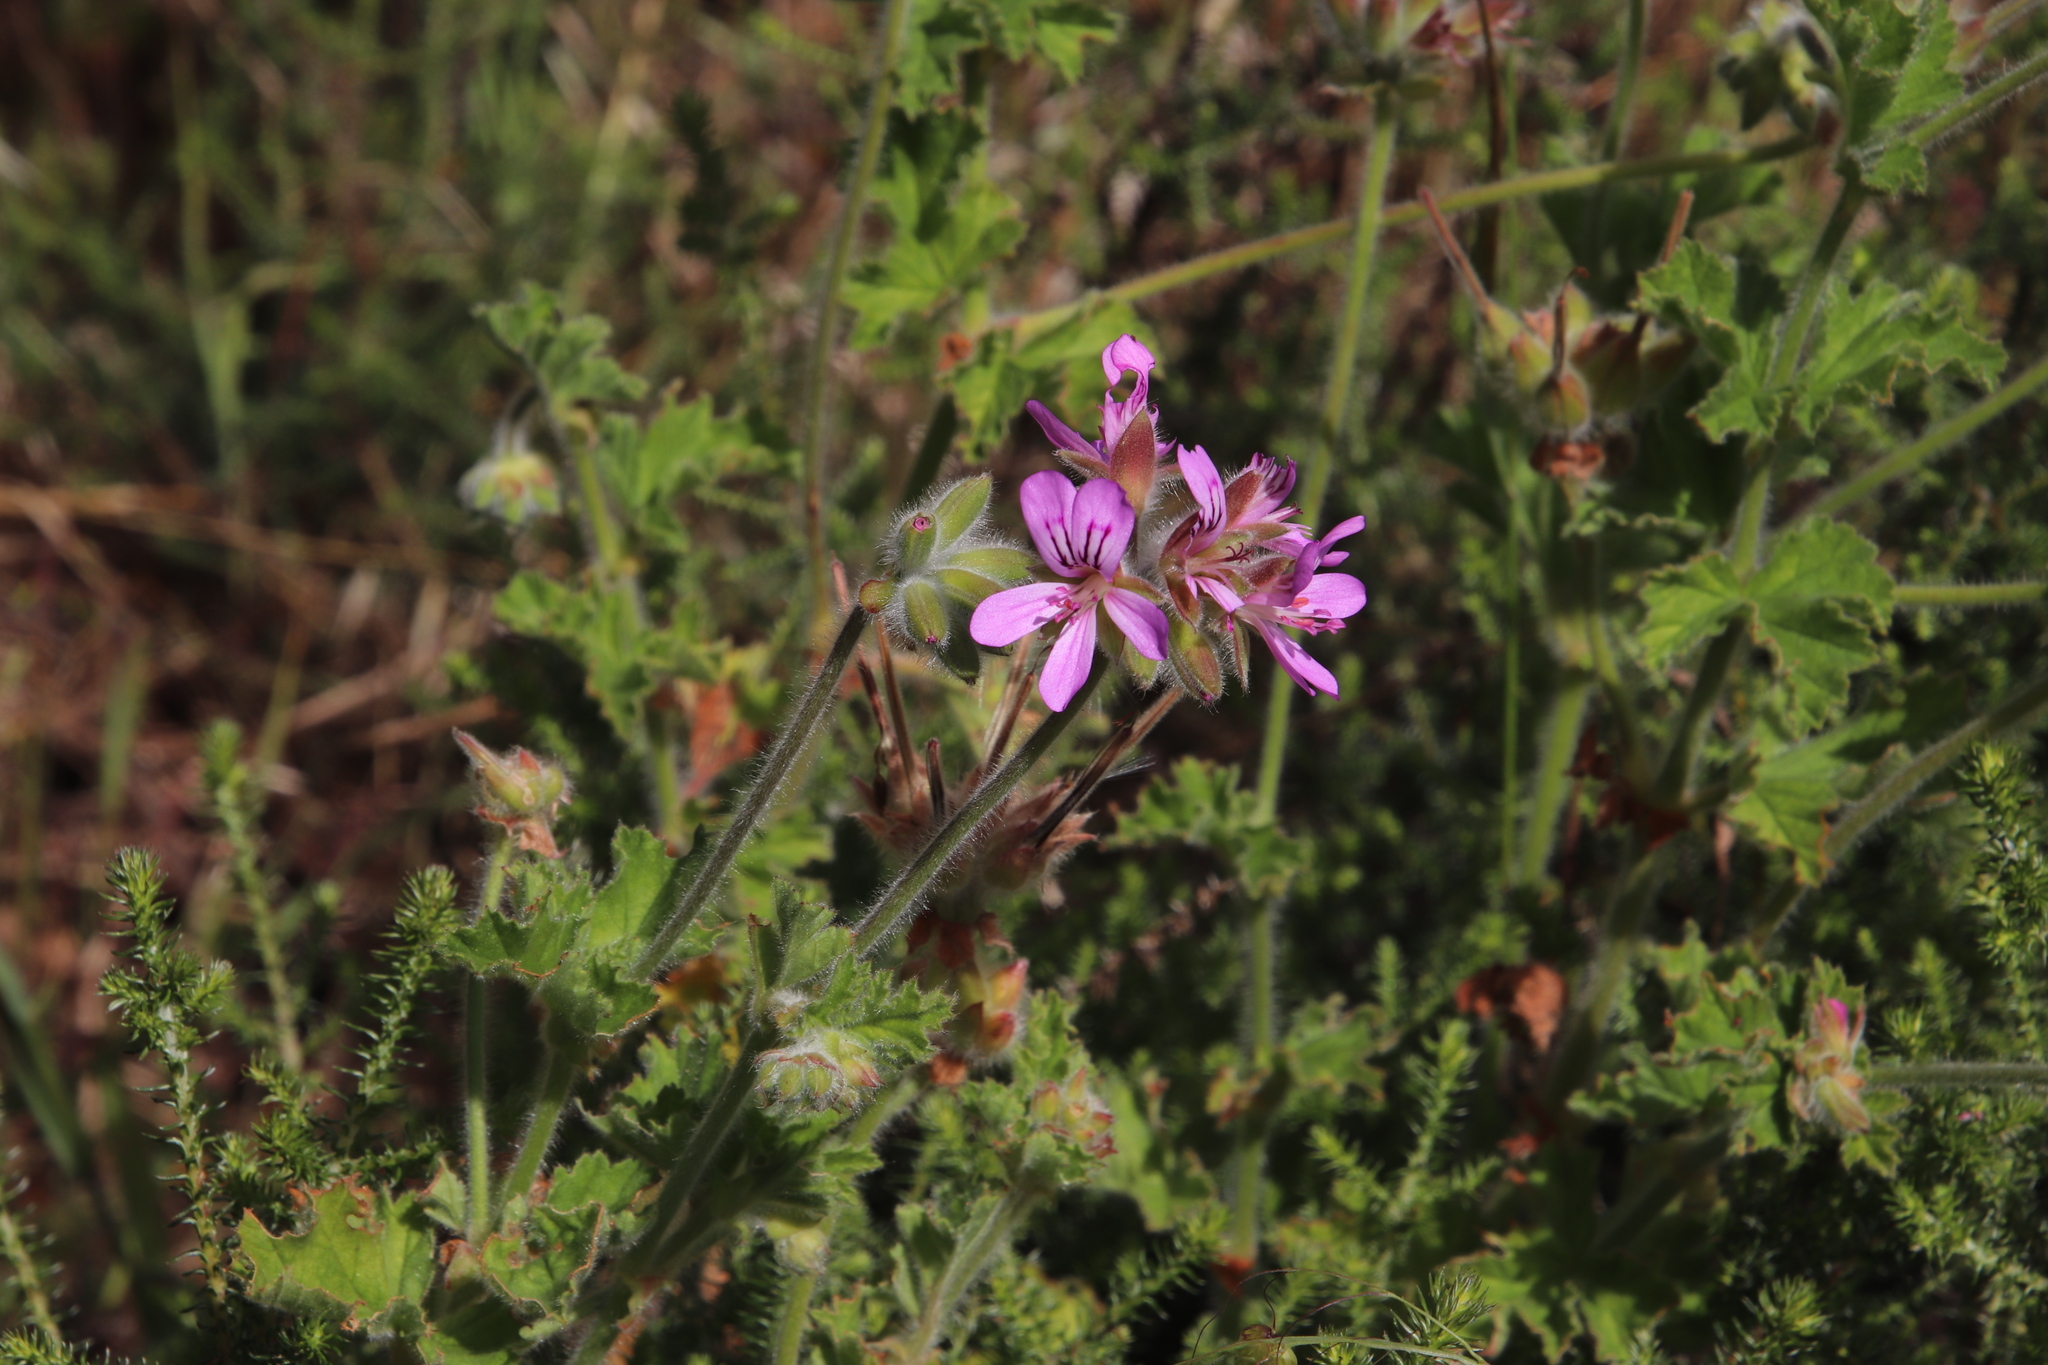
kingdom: Plantae
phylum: Tracheophyta
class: Magnoliopsida
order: Geraniales
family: Geraniaceae
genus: Pelargonium
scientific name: Pelargonium capitatum
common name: Rose scented geranium
